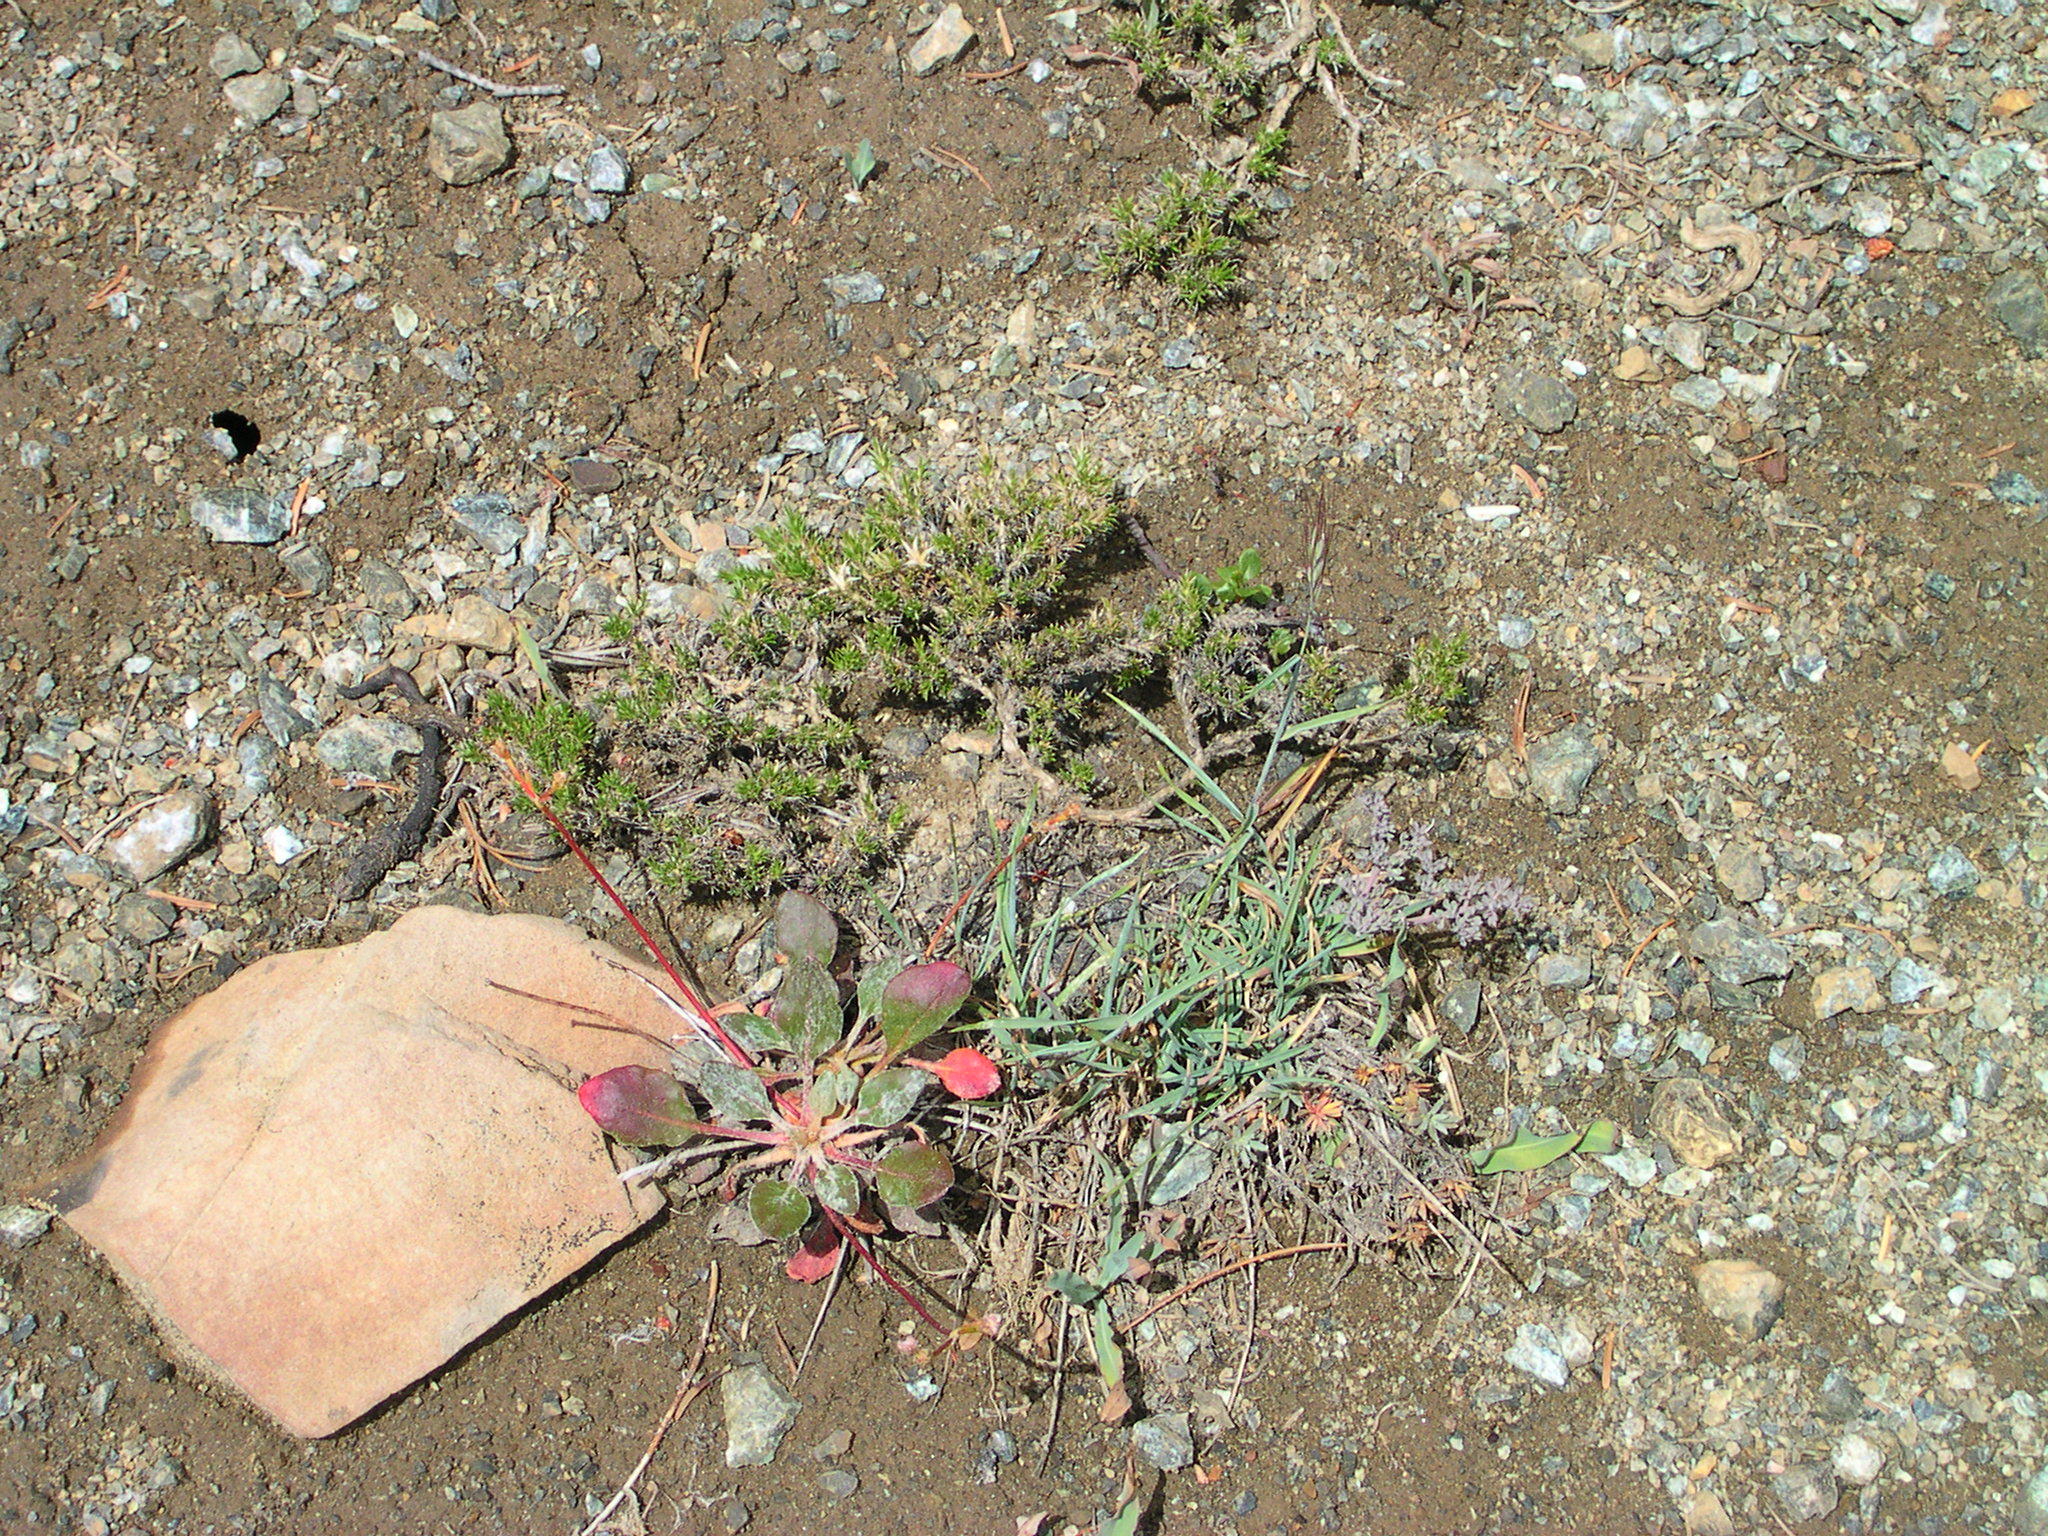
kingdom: Plantae
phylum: Tracheophyta
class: Magnoliopsida
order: Caryophyllales
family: Polygonaceae
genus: Eriogonum
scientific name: Eriogonum pyrolifolium
